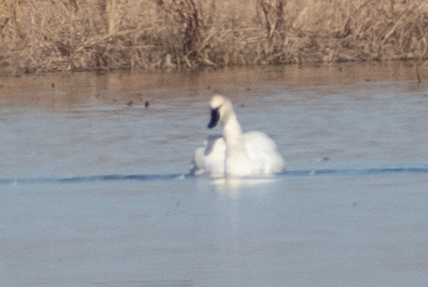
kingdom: Animalia
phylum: Chordata
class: Aves
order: Anseriformes
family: Anatidae
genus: Cygnus
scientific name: Cygnus columbianus
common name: Tundra swan
